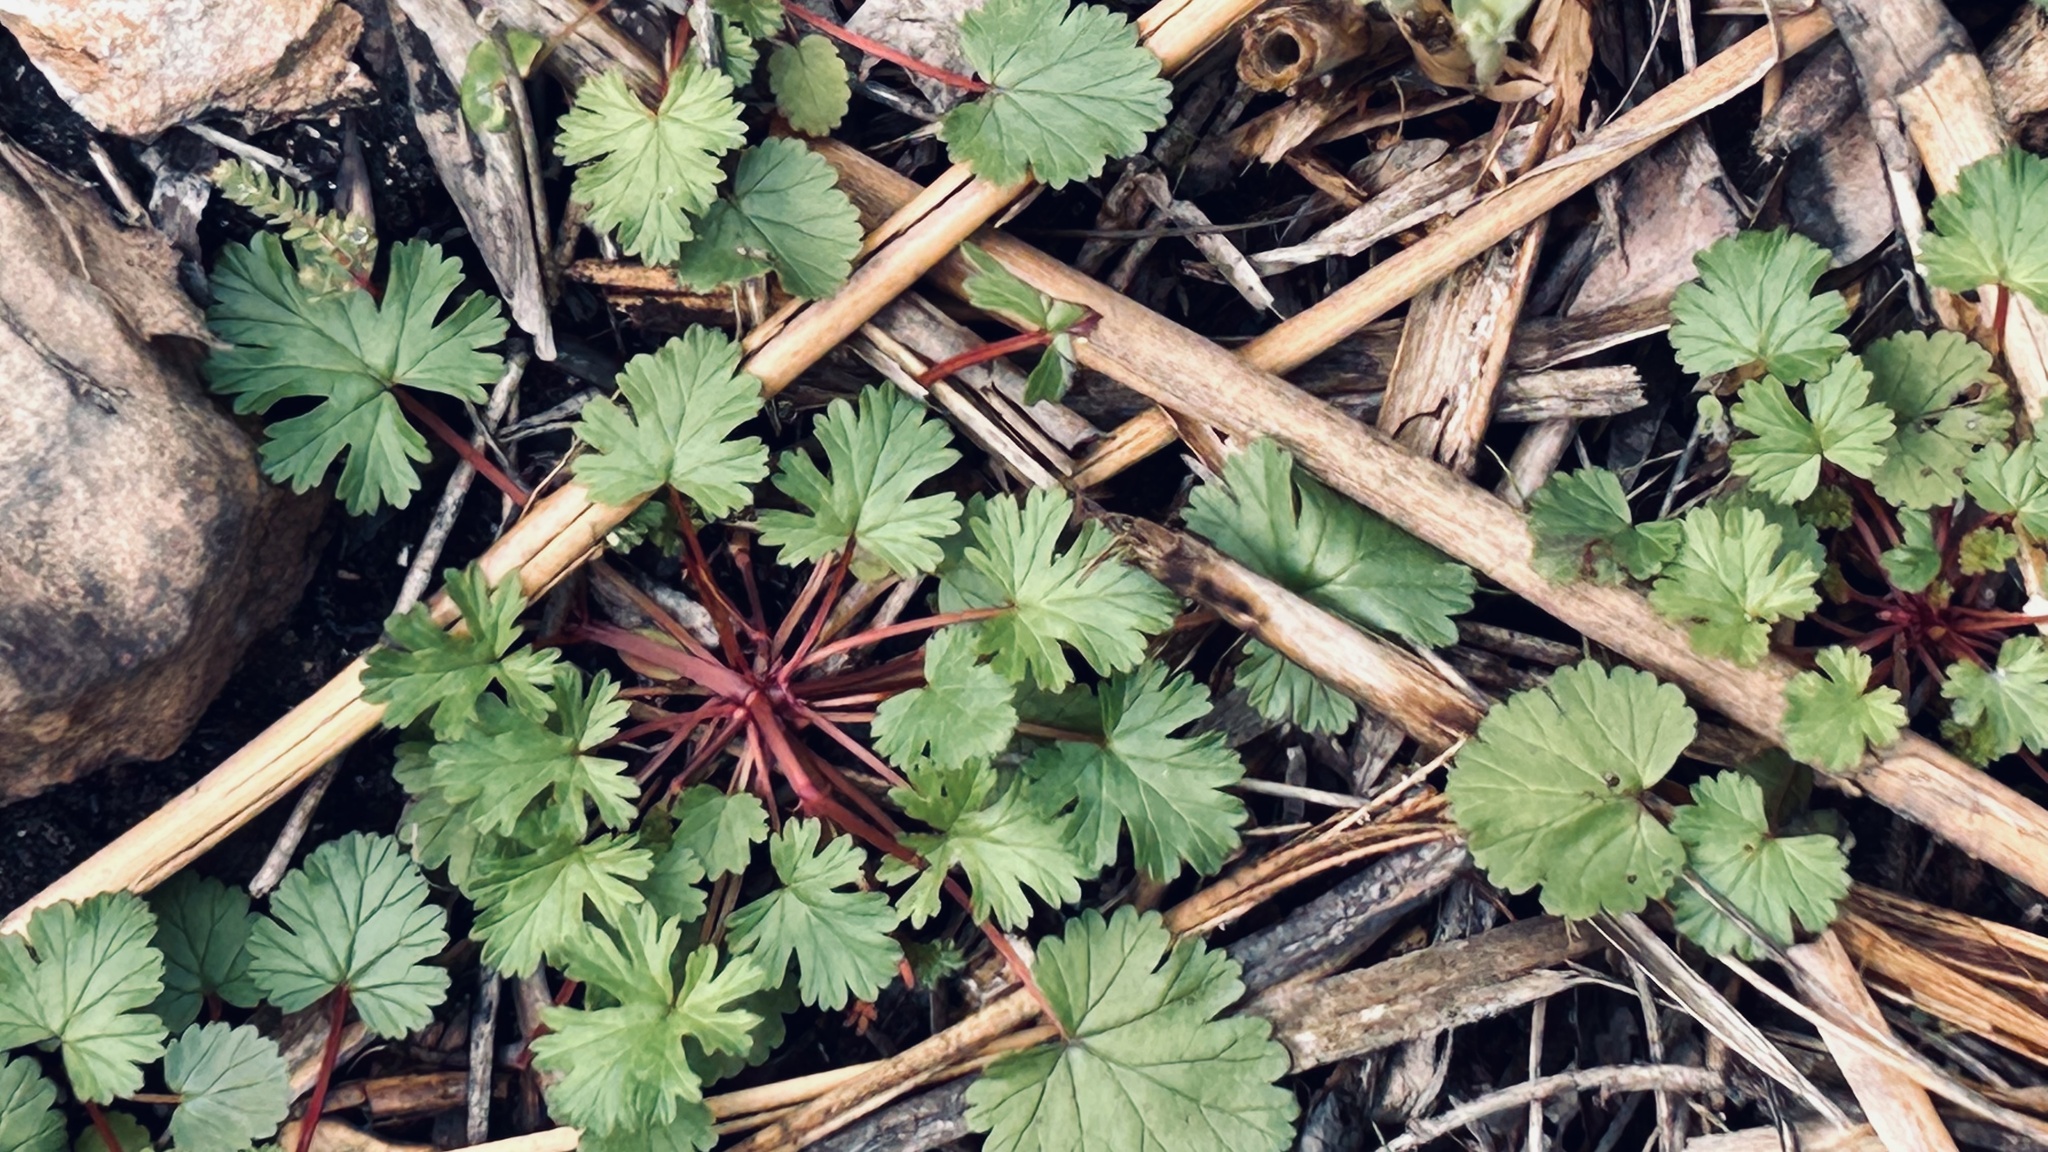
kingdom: Plantae
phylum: Tracheophyta
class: Magnoliopsida
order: Geraniales
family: Geraniaceae
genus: Pelargonium
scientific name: Pelargonium grossularioides
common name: Gooseberry geranium
